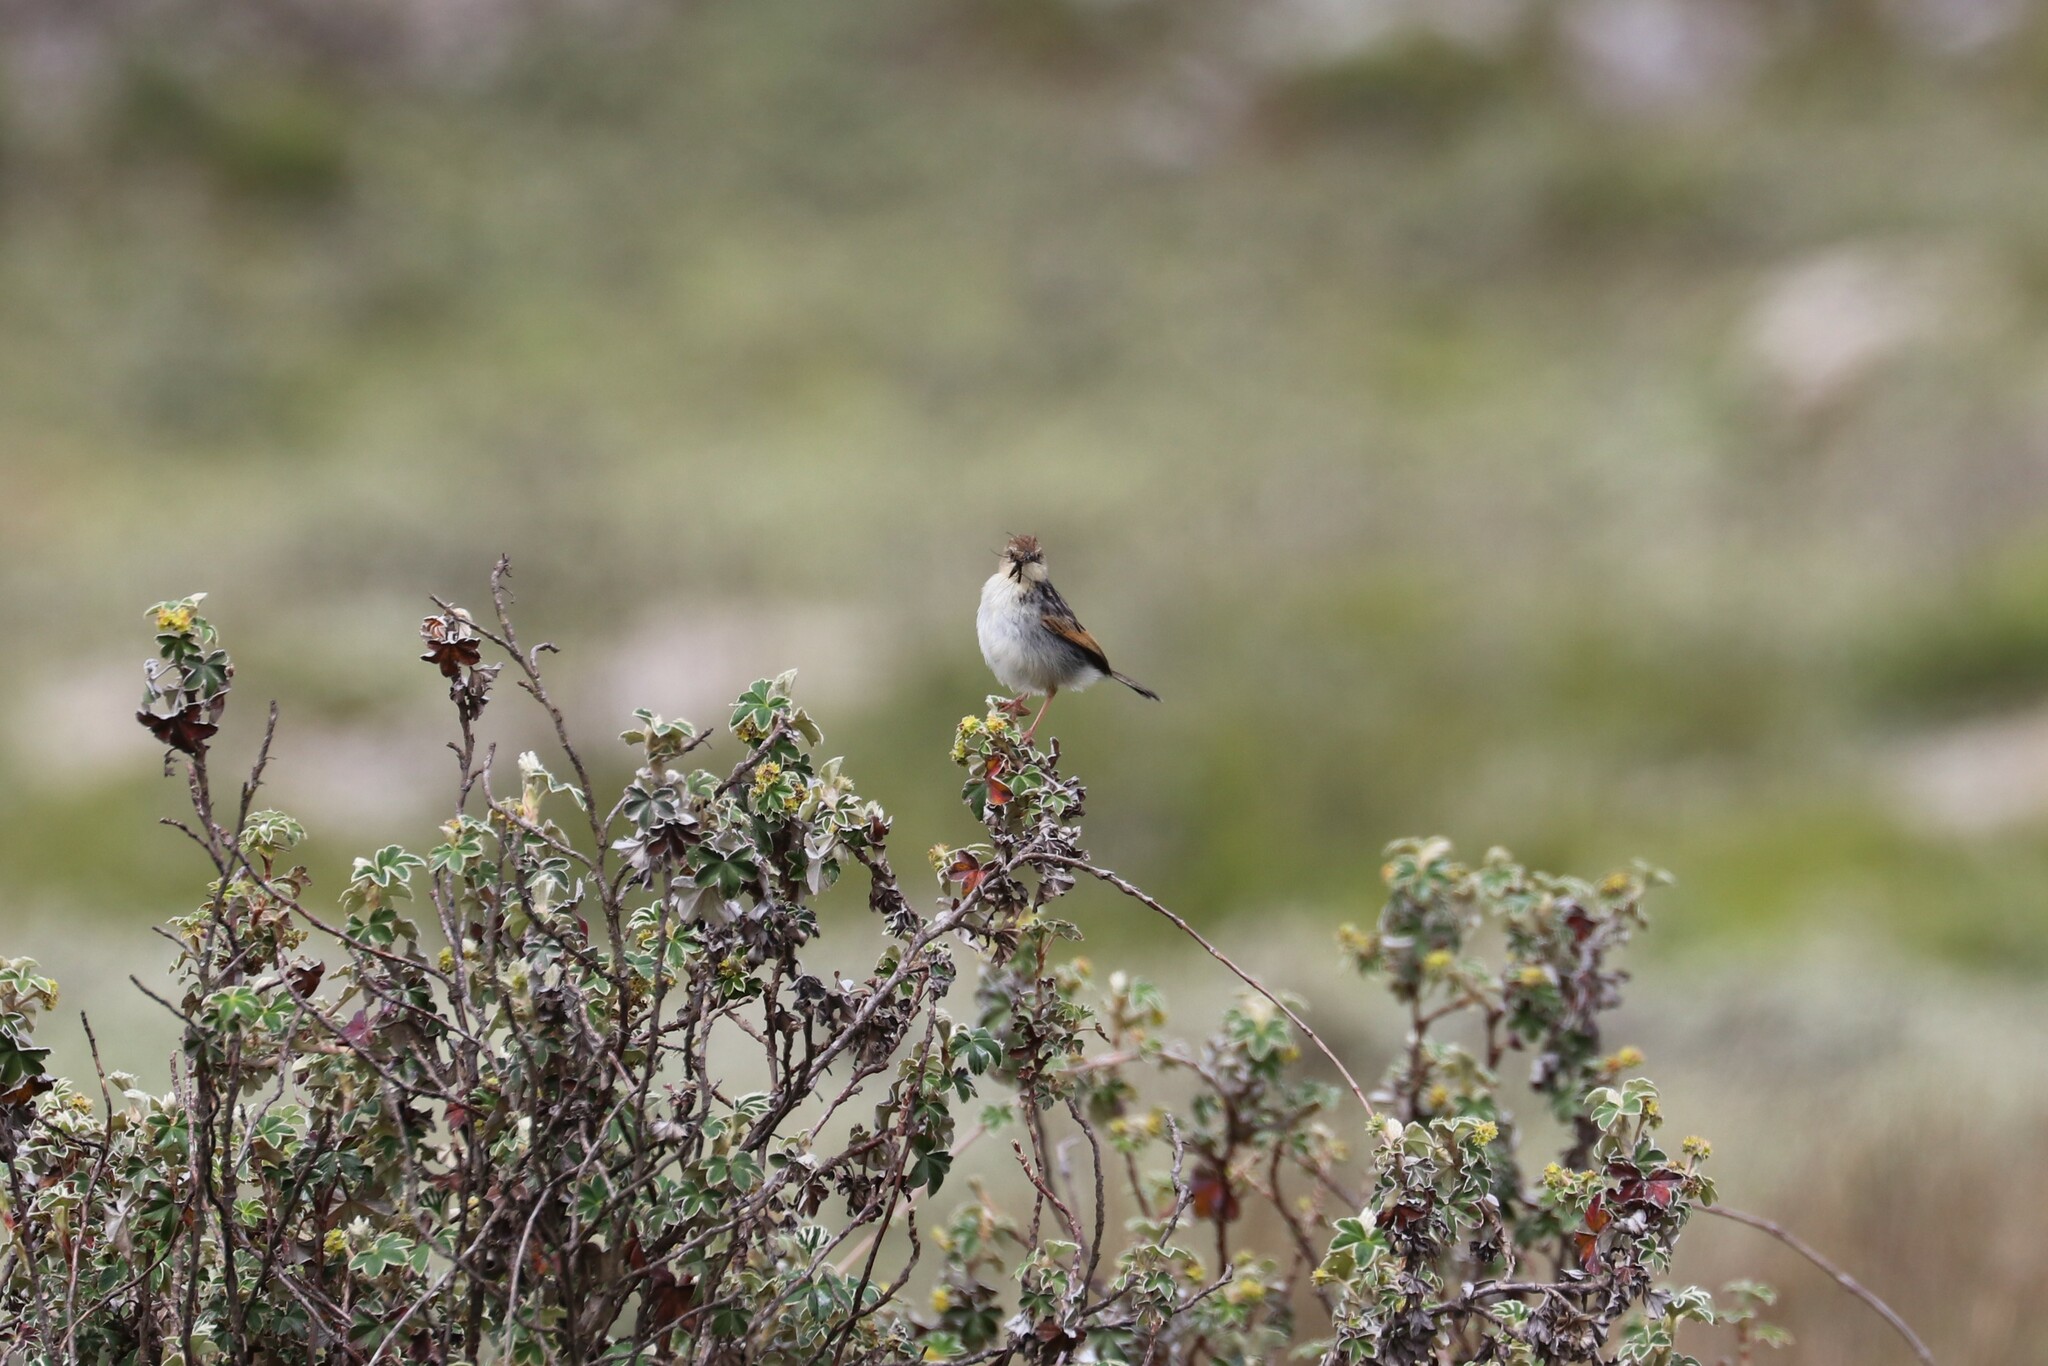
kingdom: Animalia
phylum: Chordata
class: Aves
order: Passeriformes
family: Cisticolidae
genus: Cisticola
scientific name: Cisticola lugubris
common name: Ethiopian cisticola
